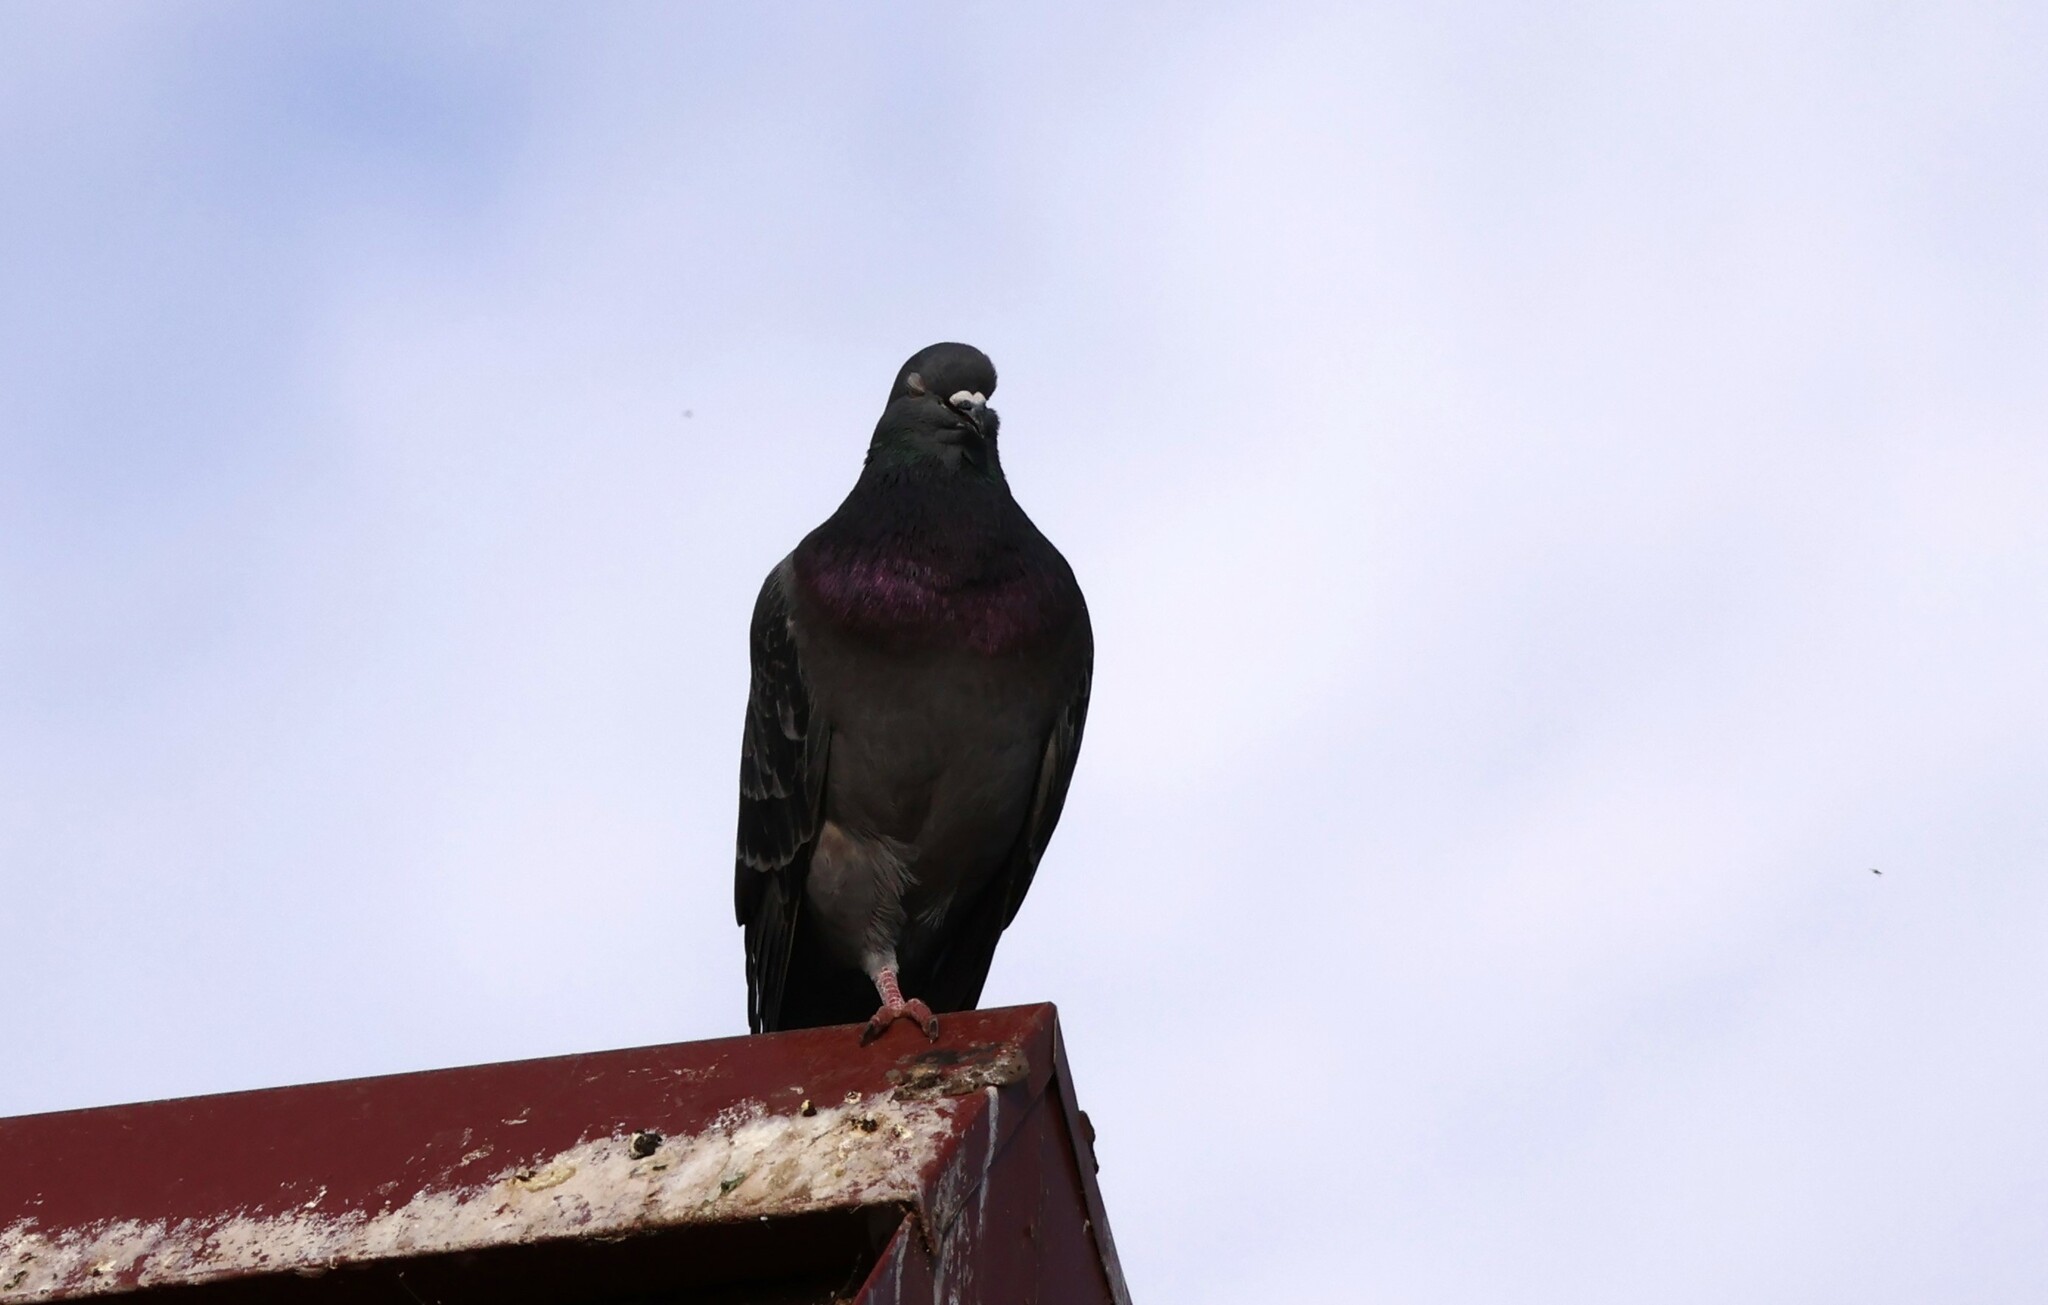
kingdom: Animalia
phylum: Chordata
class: Aves
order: Columbiformes
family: Columbidae
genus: Columba
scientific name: Columba livia
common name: Rock pigeon
